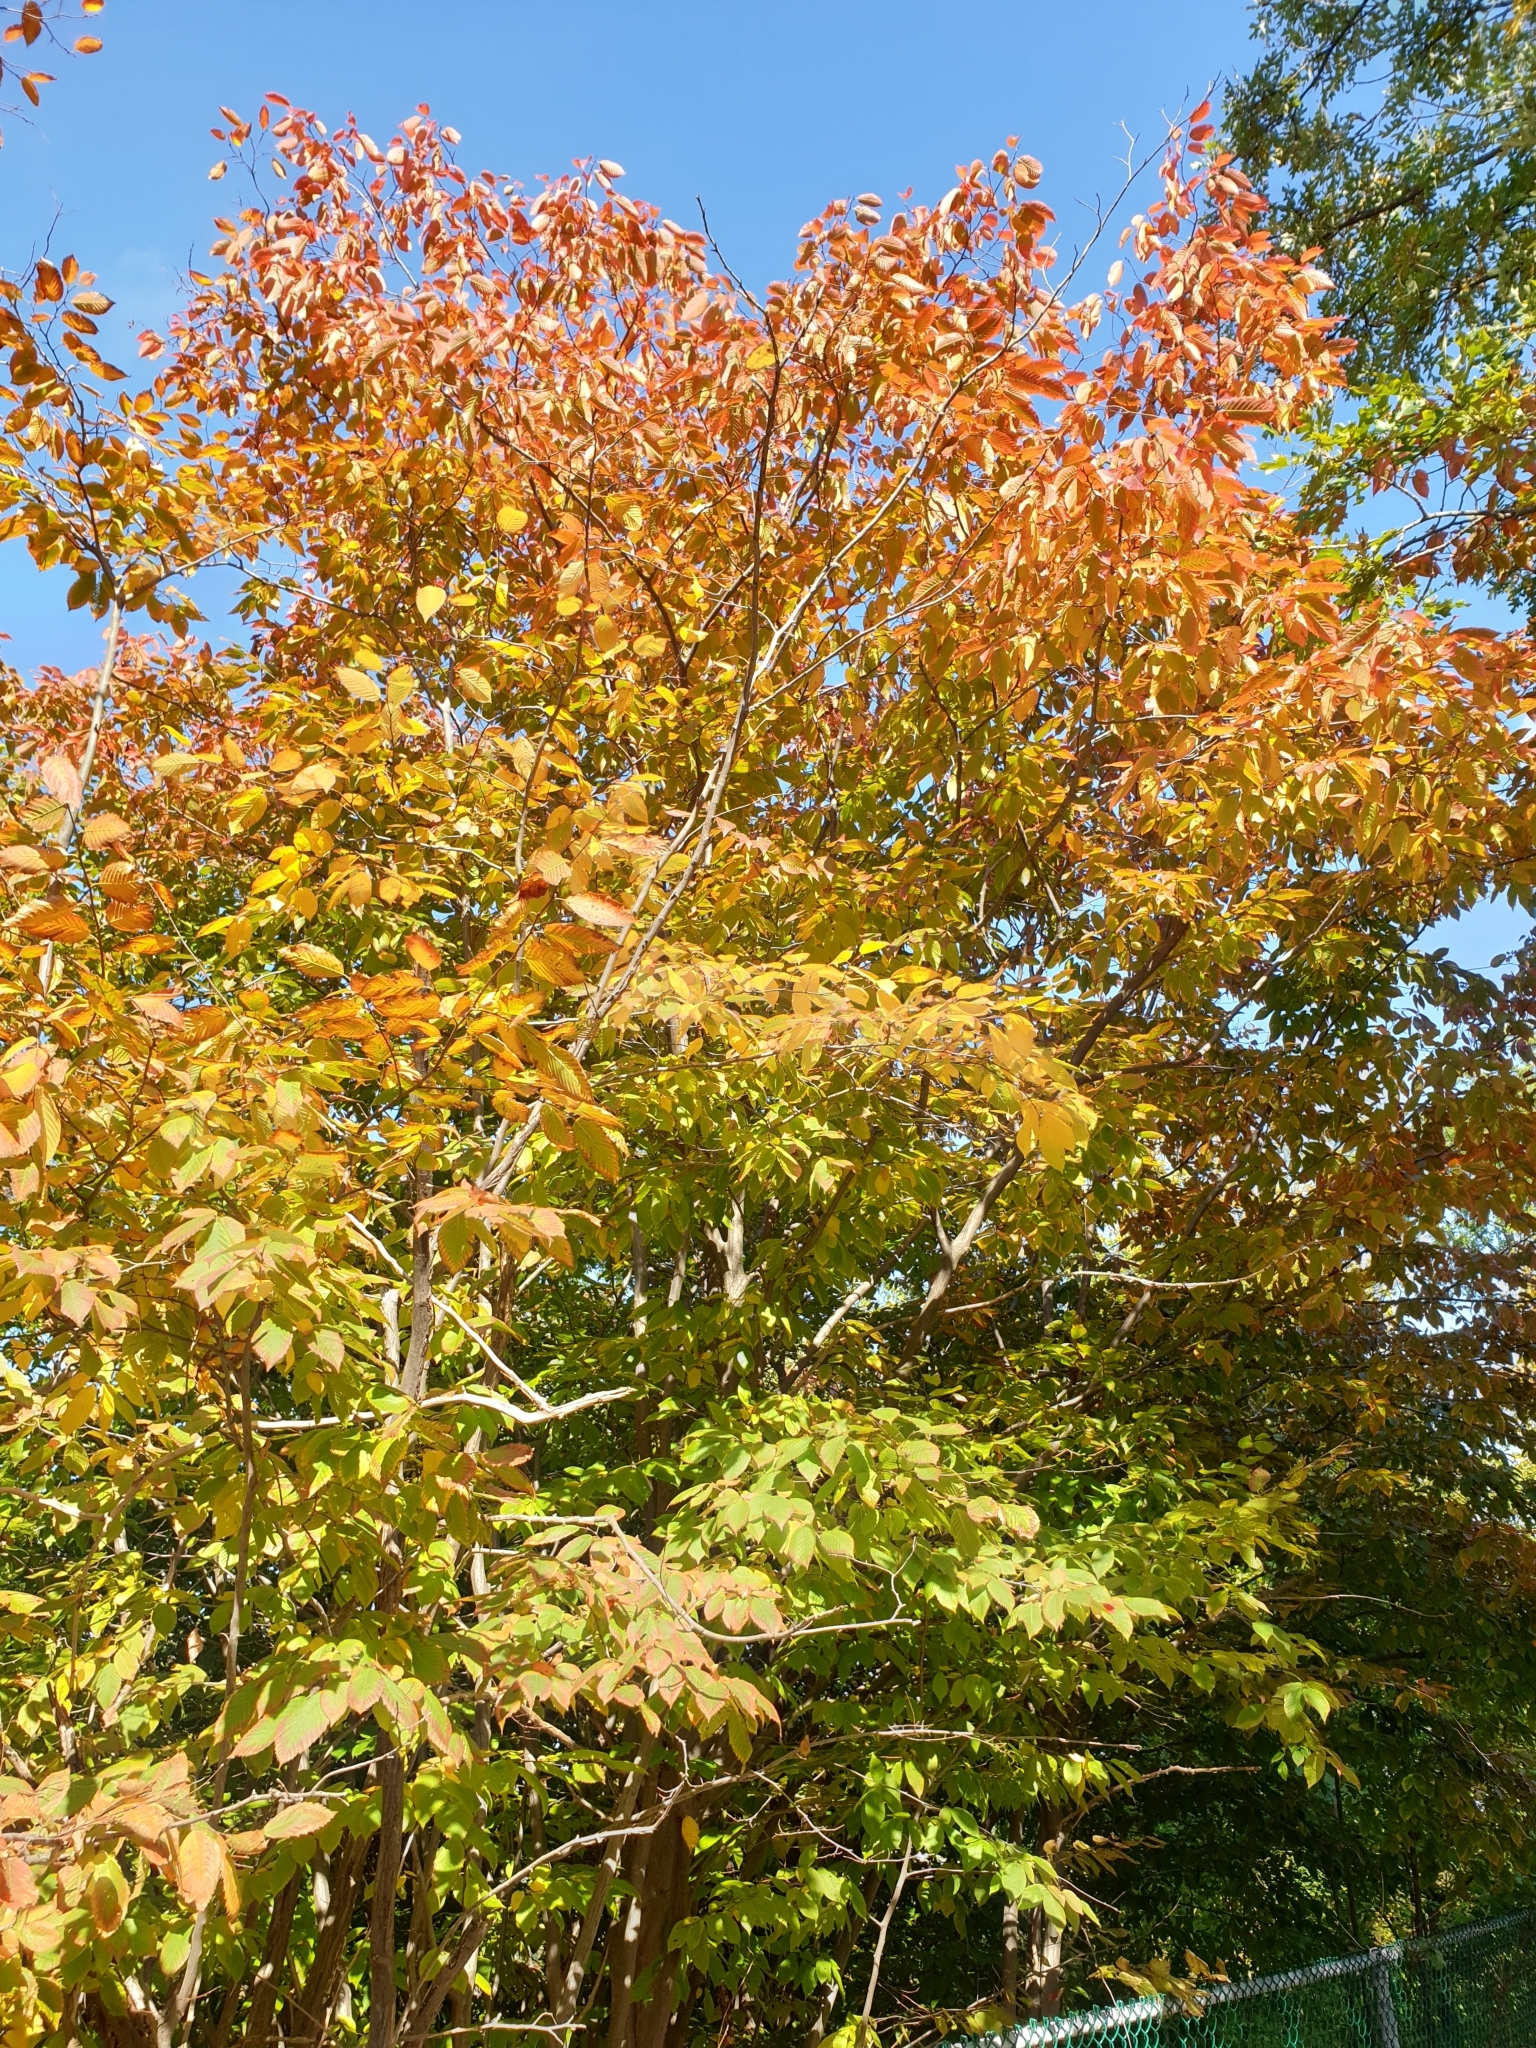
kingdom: Plantae
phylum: Tracheophyta
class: Magnoliopsida
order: Fagales
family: Betulaceae
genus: Carpinus
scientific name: Carpinus caroliniana
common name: American hornbeam
